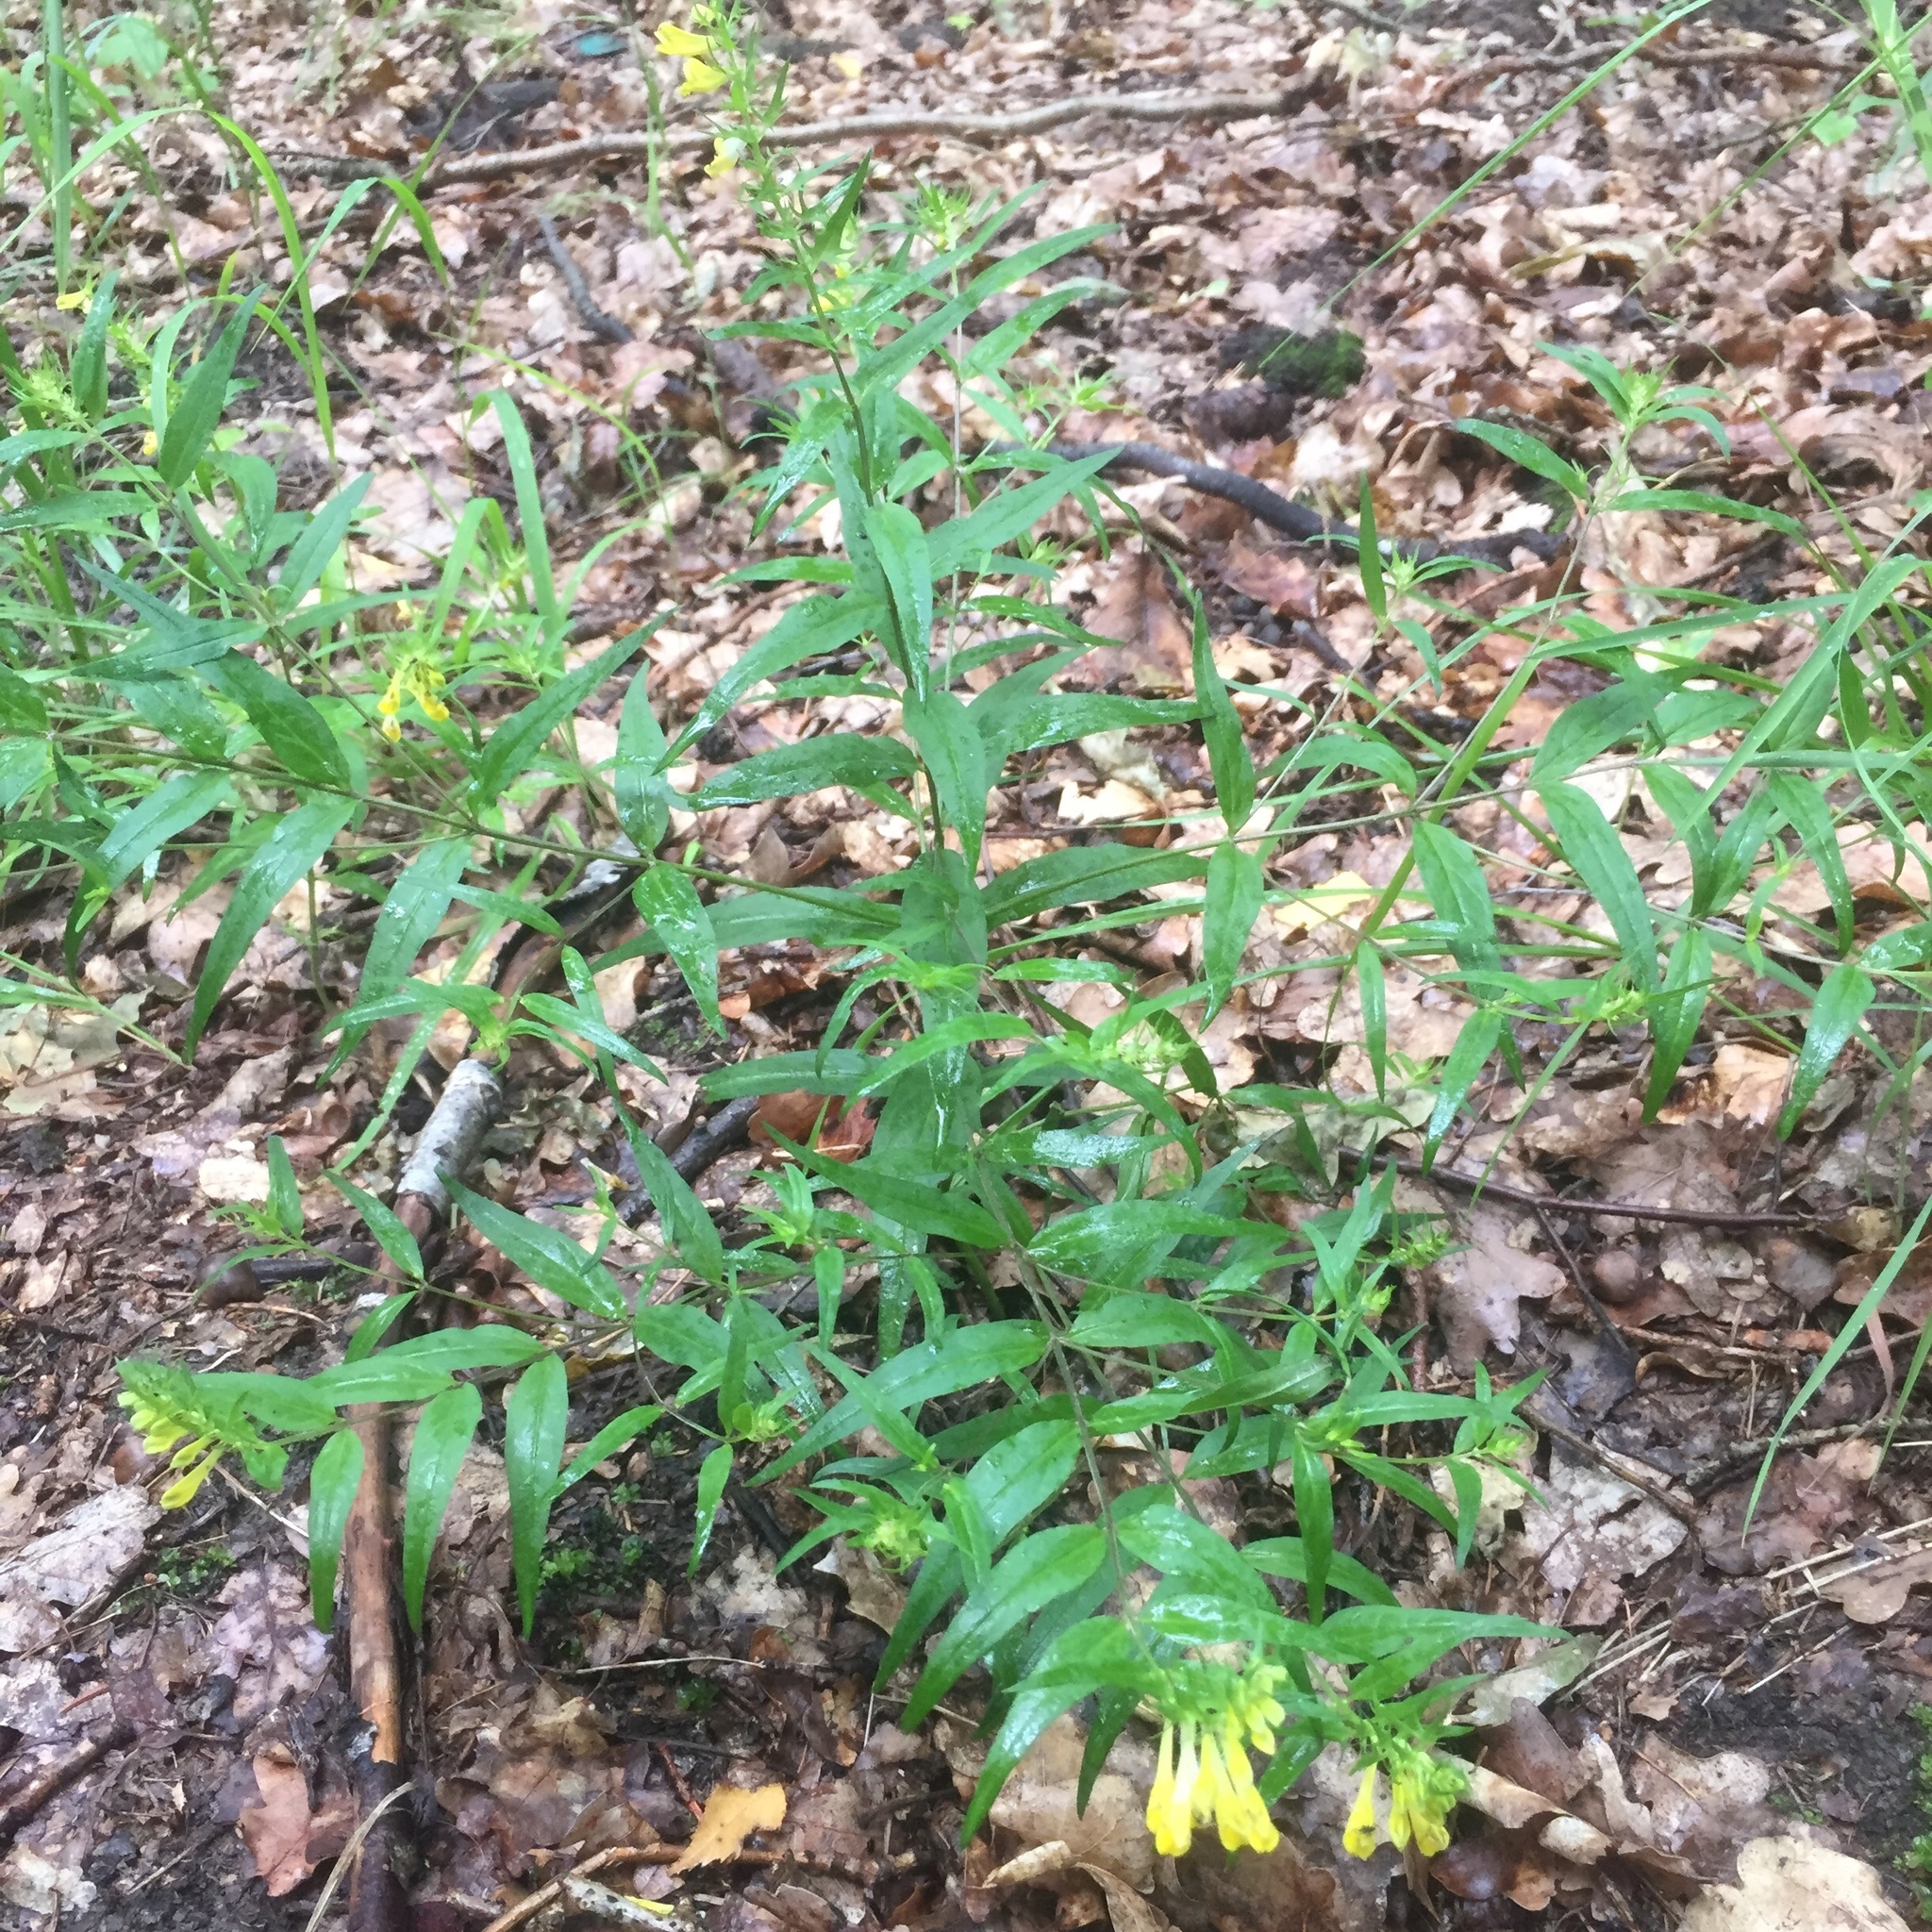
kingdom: Plantae
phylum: Tracheophyta
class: Magnoliopsida
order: Lamiales
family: Orobanchaceae
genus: Melampyrum
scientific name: Melampyrum pratense
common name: Common cow-wheat
